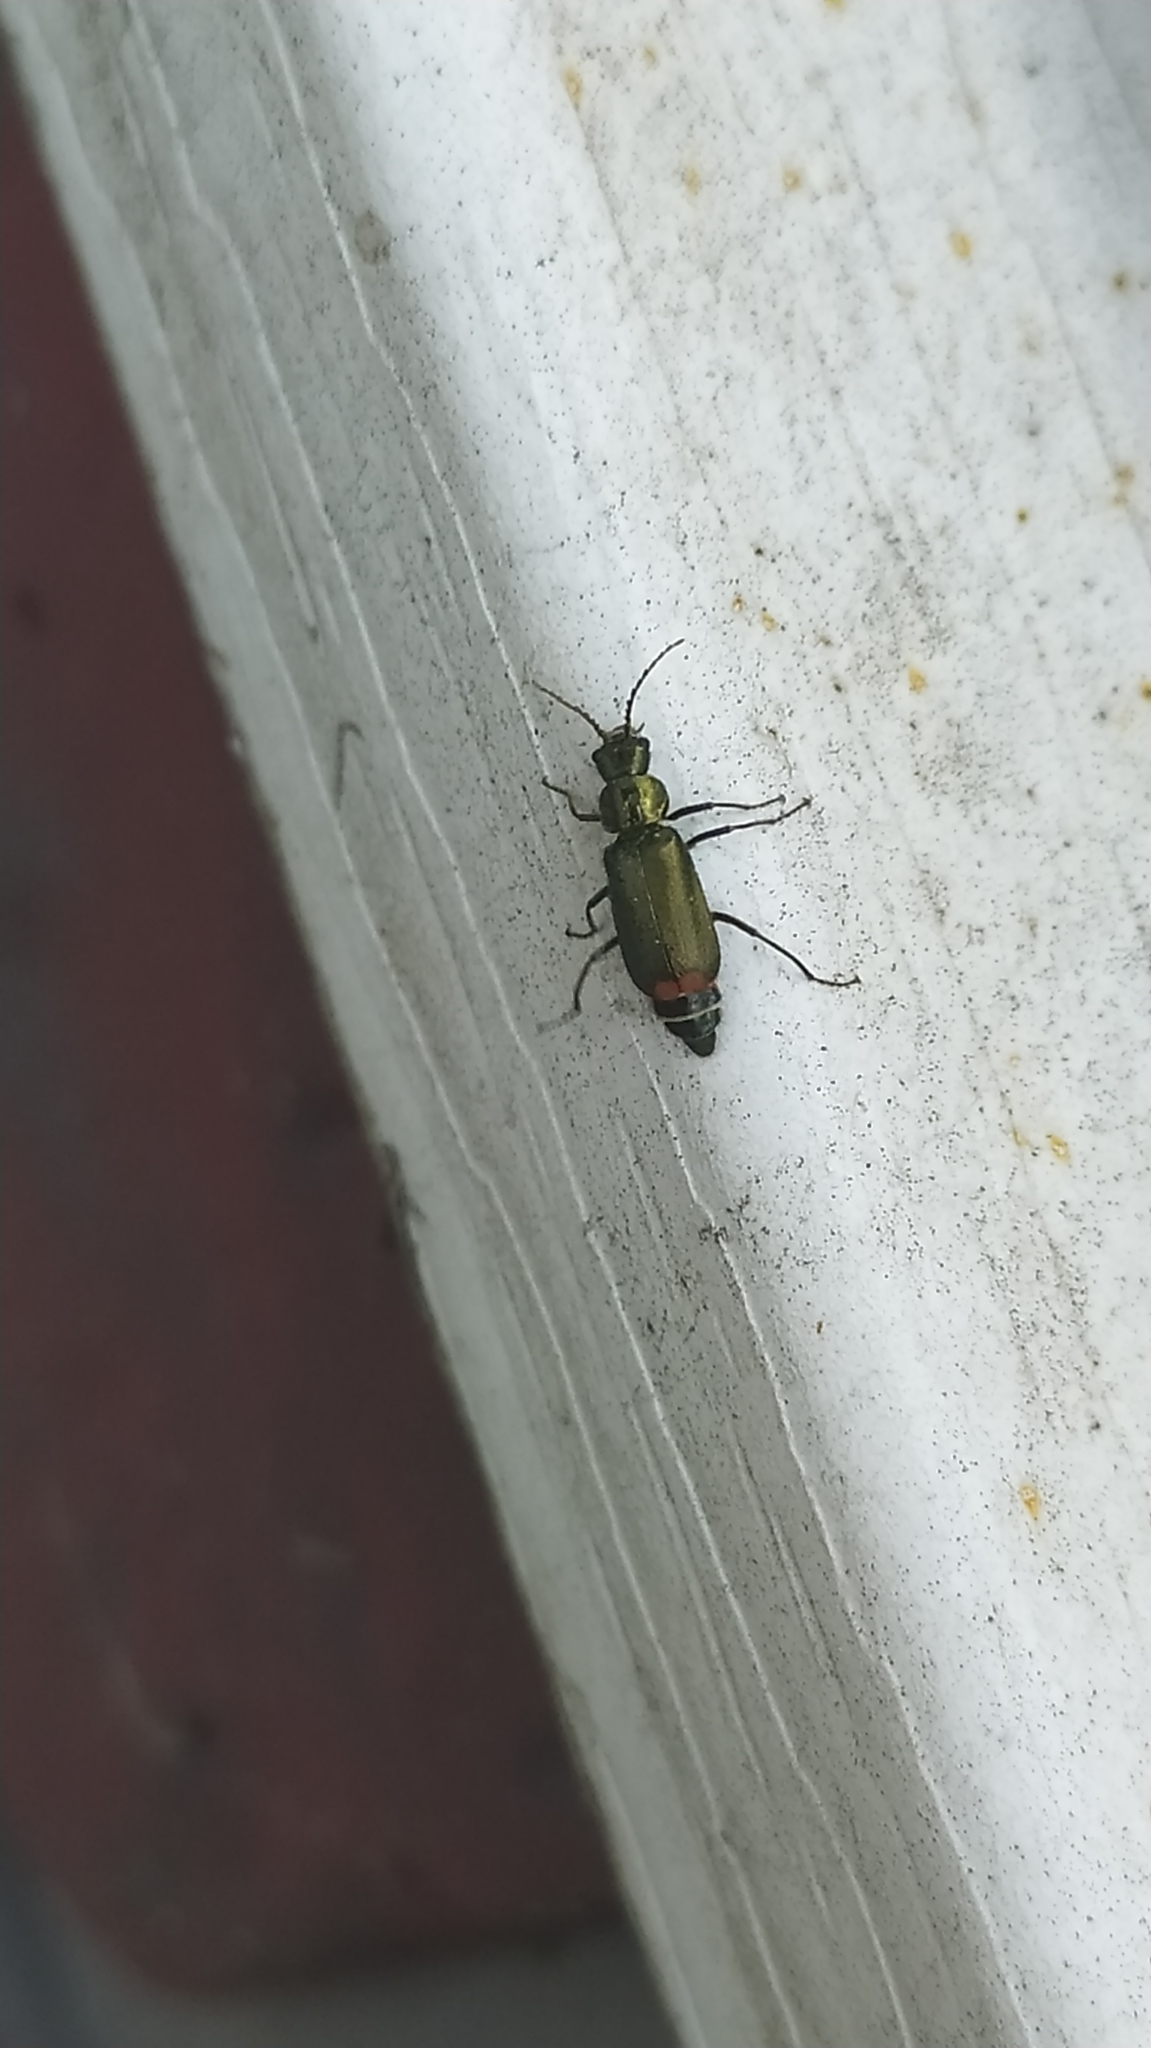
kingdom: Animalia
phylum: Arthropoda
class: Insecta
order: Coleoptera
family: Melyridae
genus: Malachius
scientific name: Malachius bipustulatus
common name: Malachite beetle
